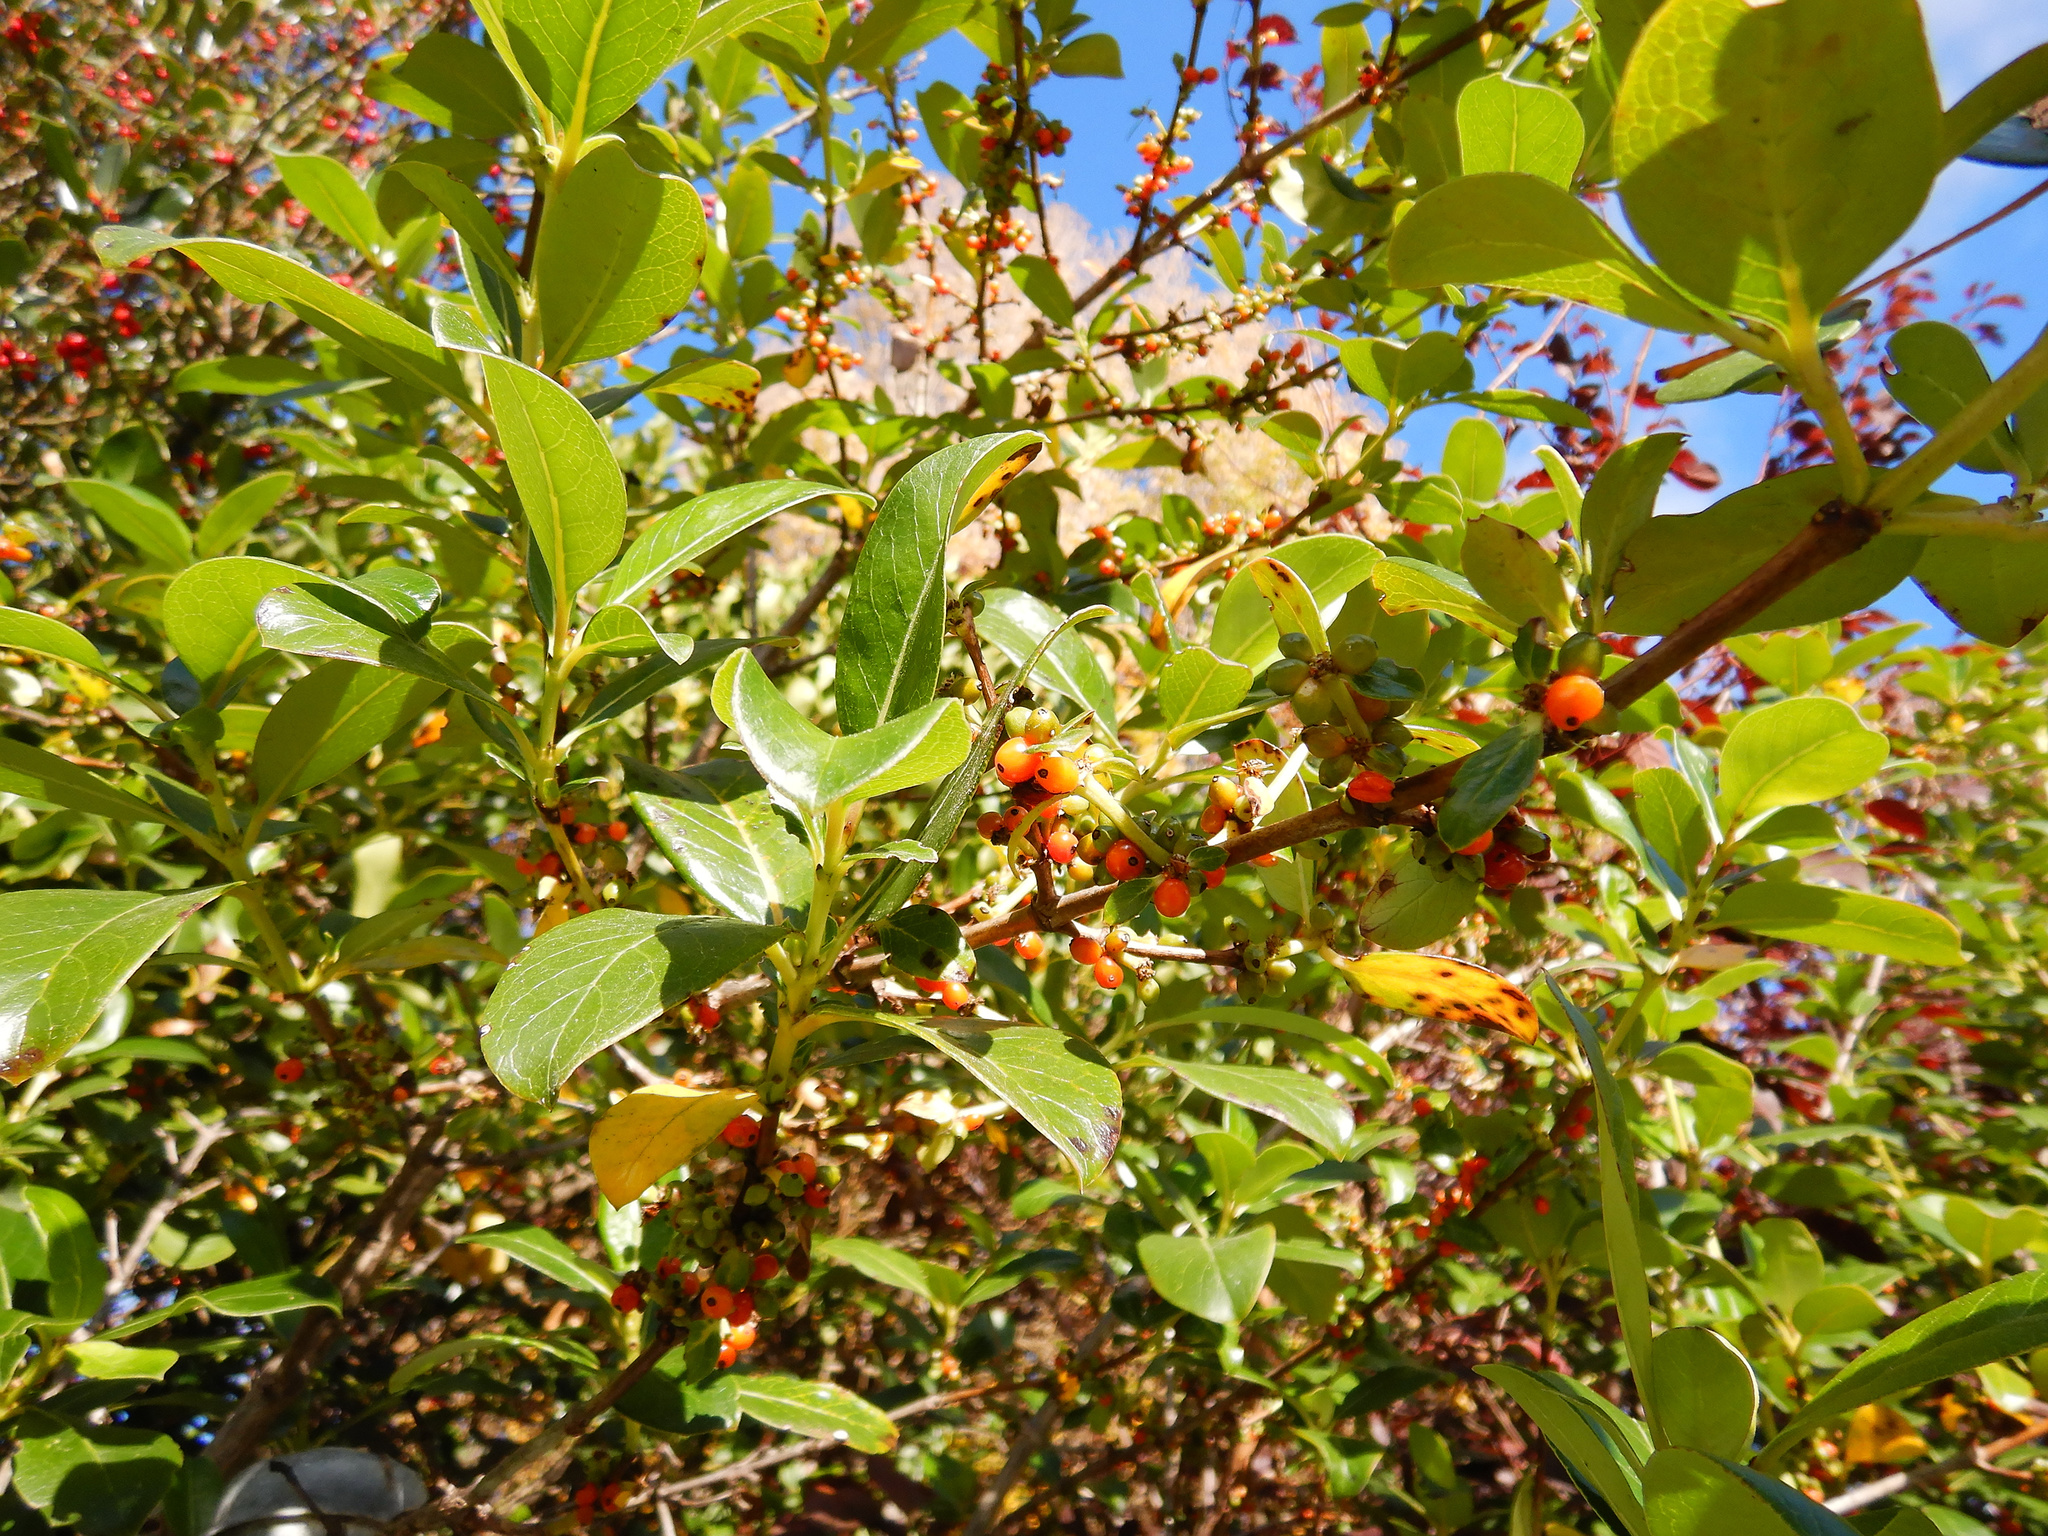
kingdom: Plantae
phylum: Tracheophyta
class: Magnoliopsida
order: Gentianales
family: Rubiaceae
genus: Coprosma
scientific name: Coprosma robusta
